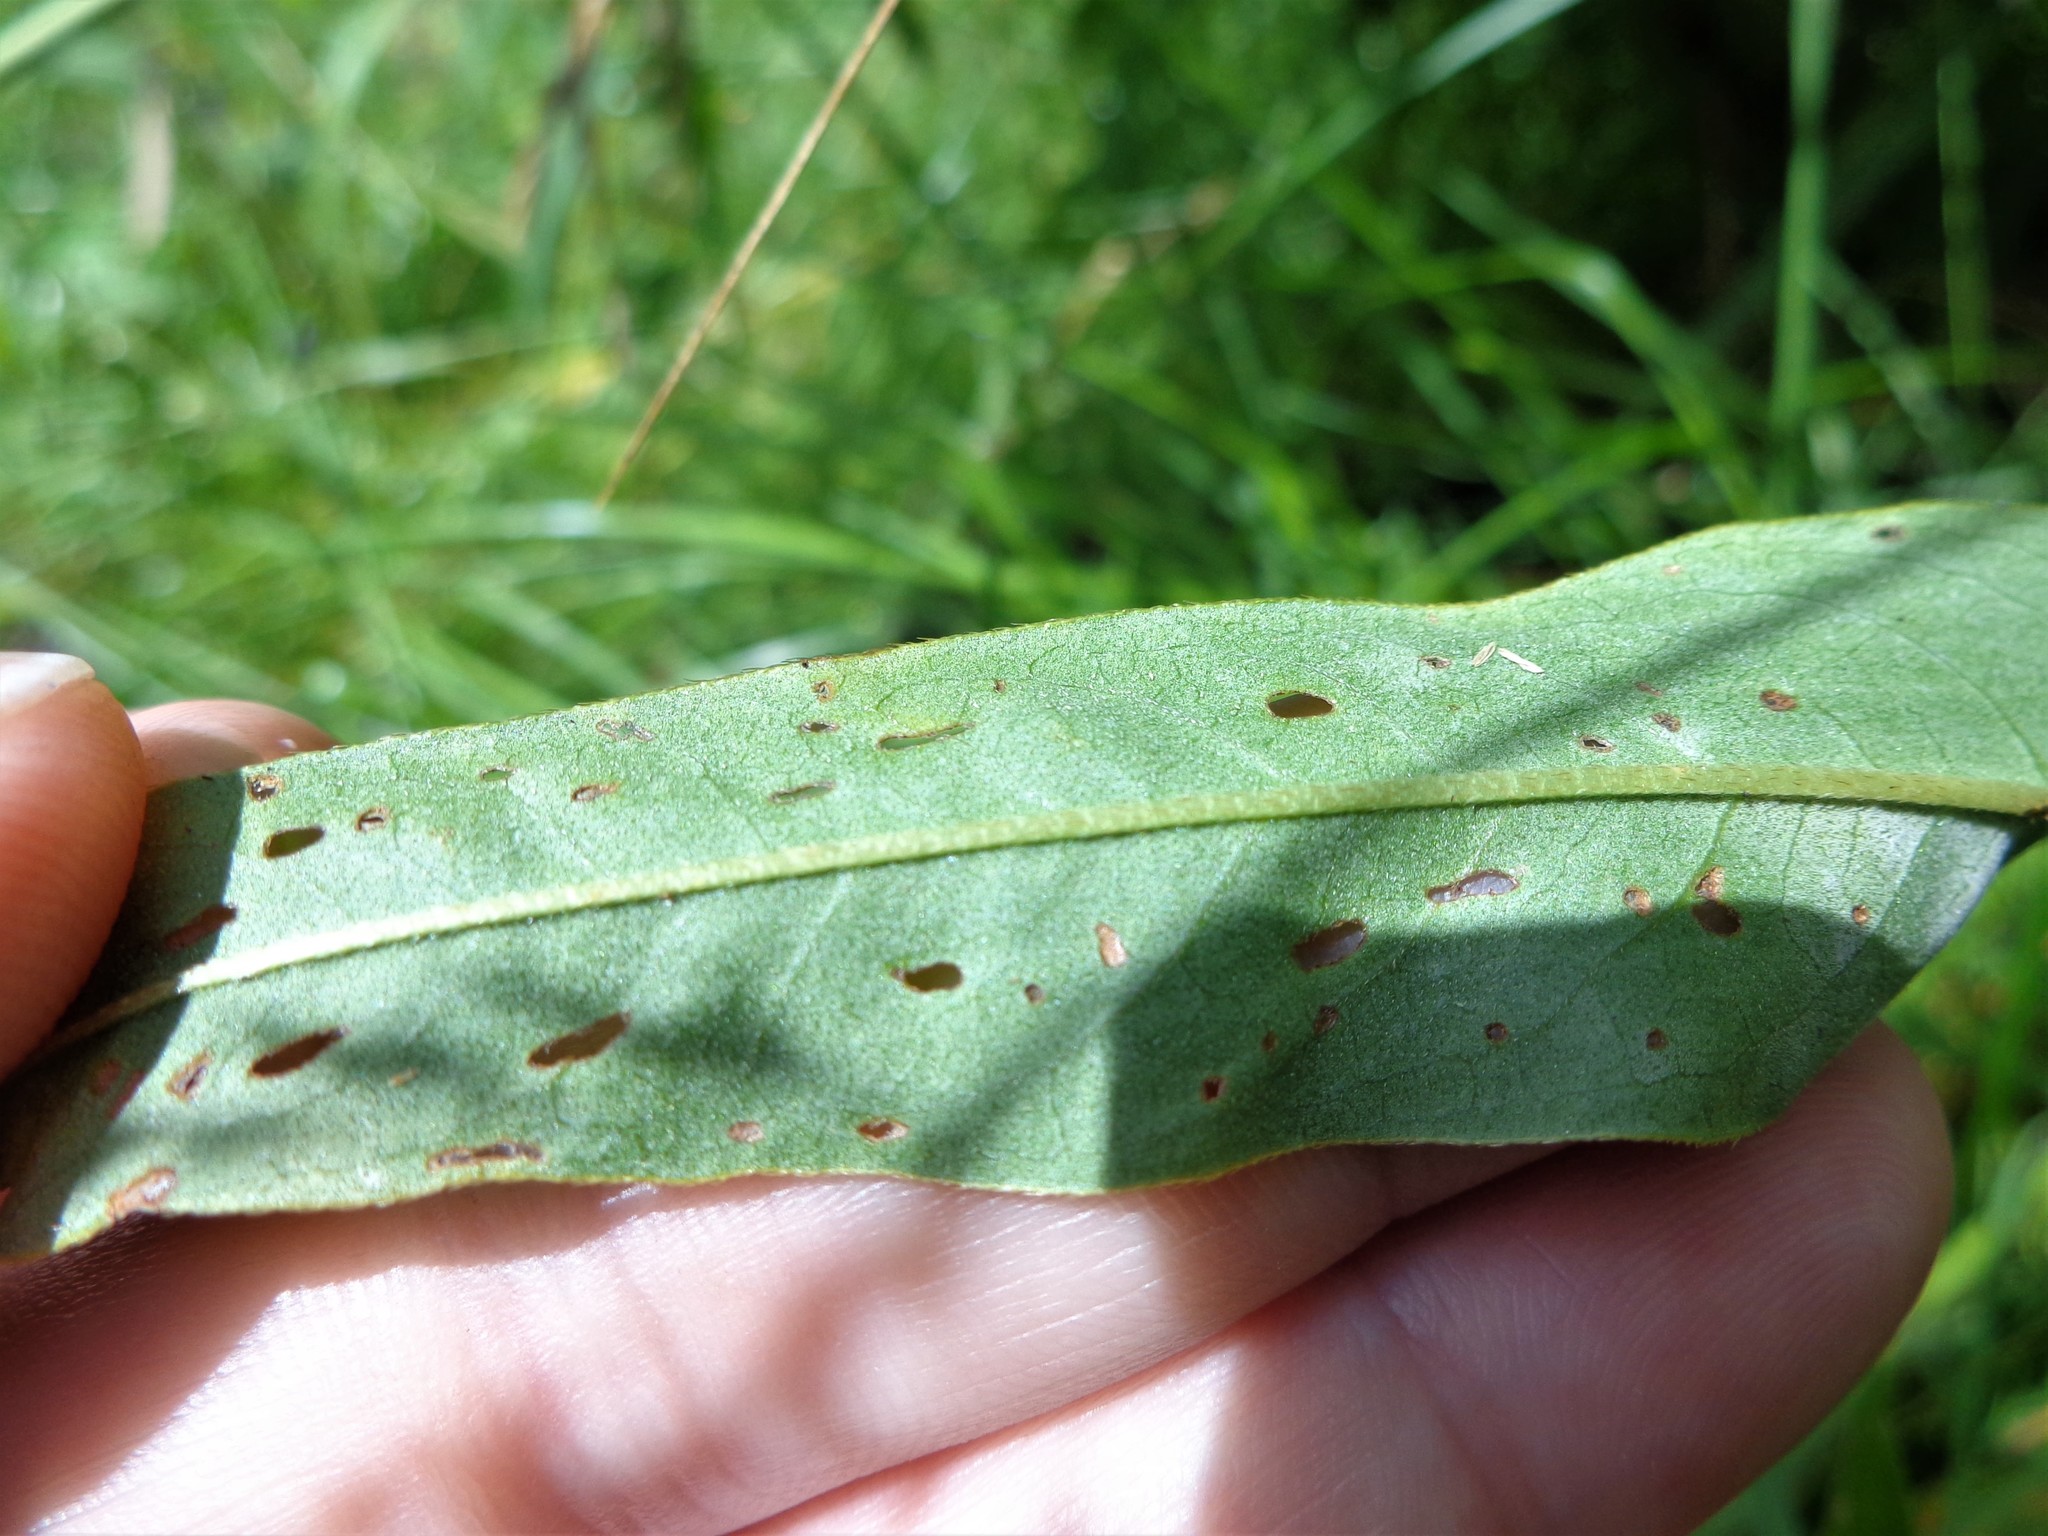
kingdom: Plantae
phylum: Tracheophyta
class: Magnoliopsida
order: Caryophyllales
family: Polygonaceae
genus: Persicaria
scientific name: Persicaria amphibia
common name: Amphibious bistort
